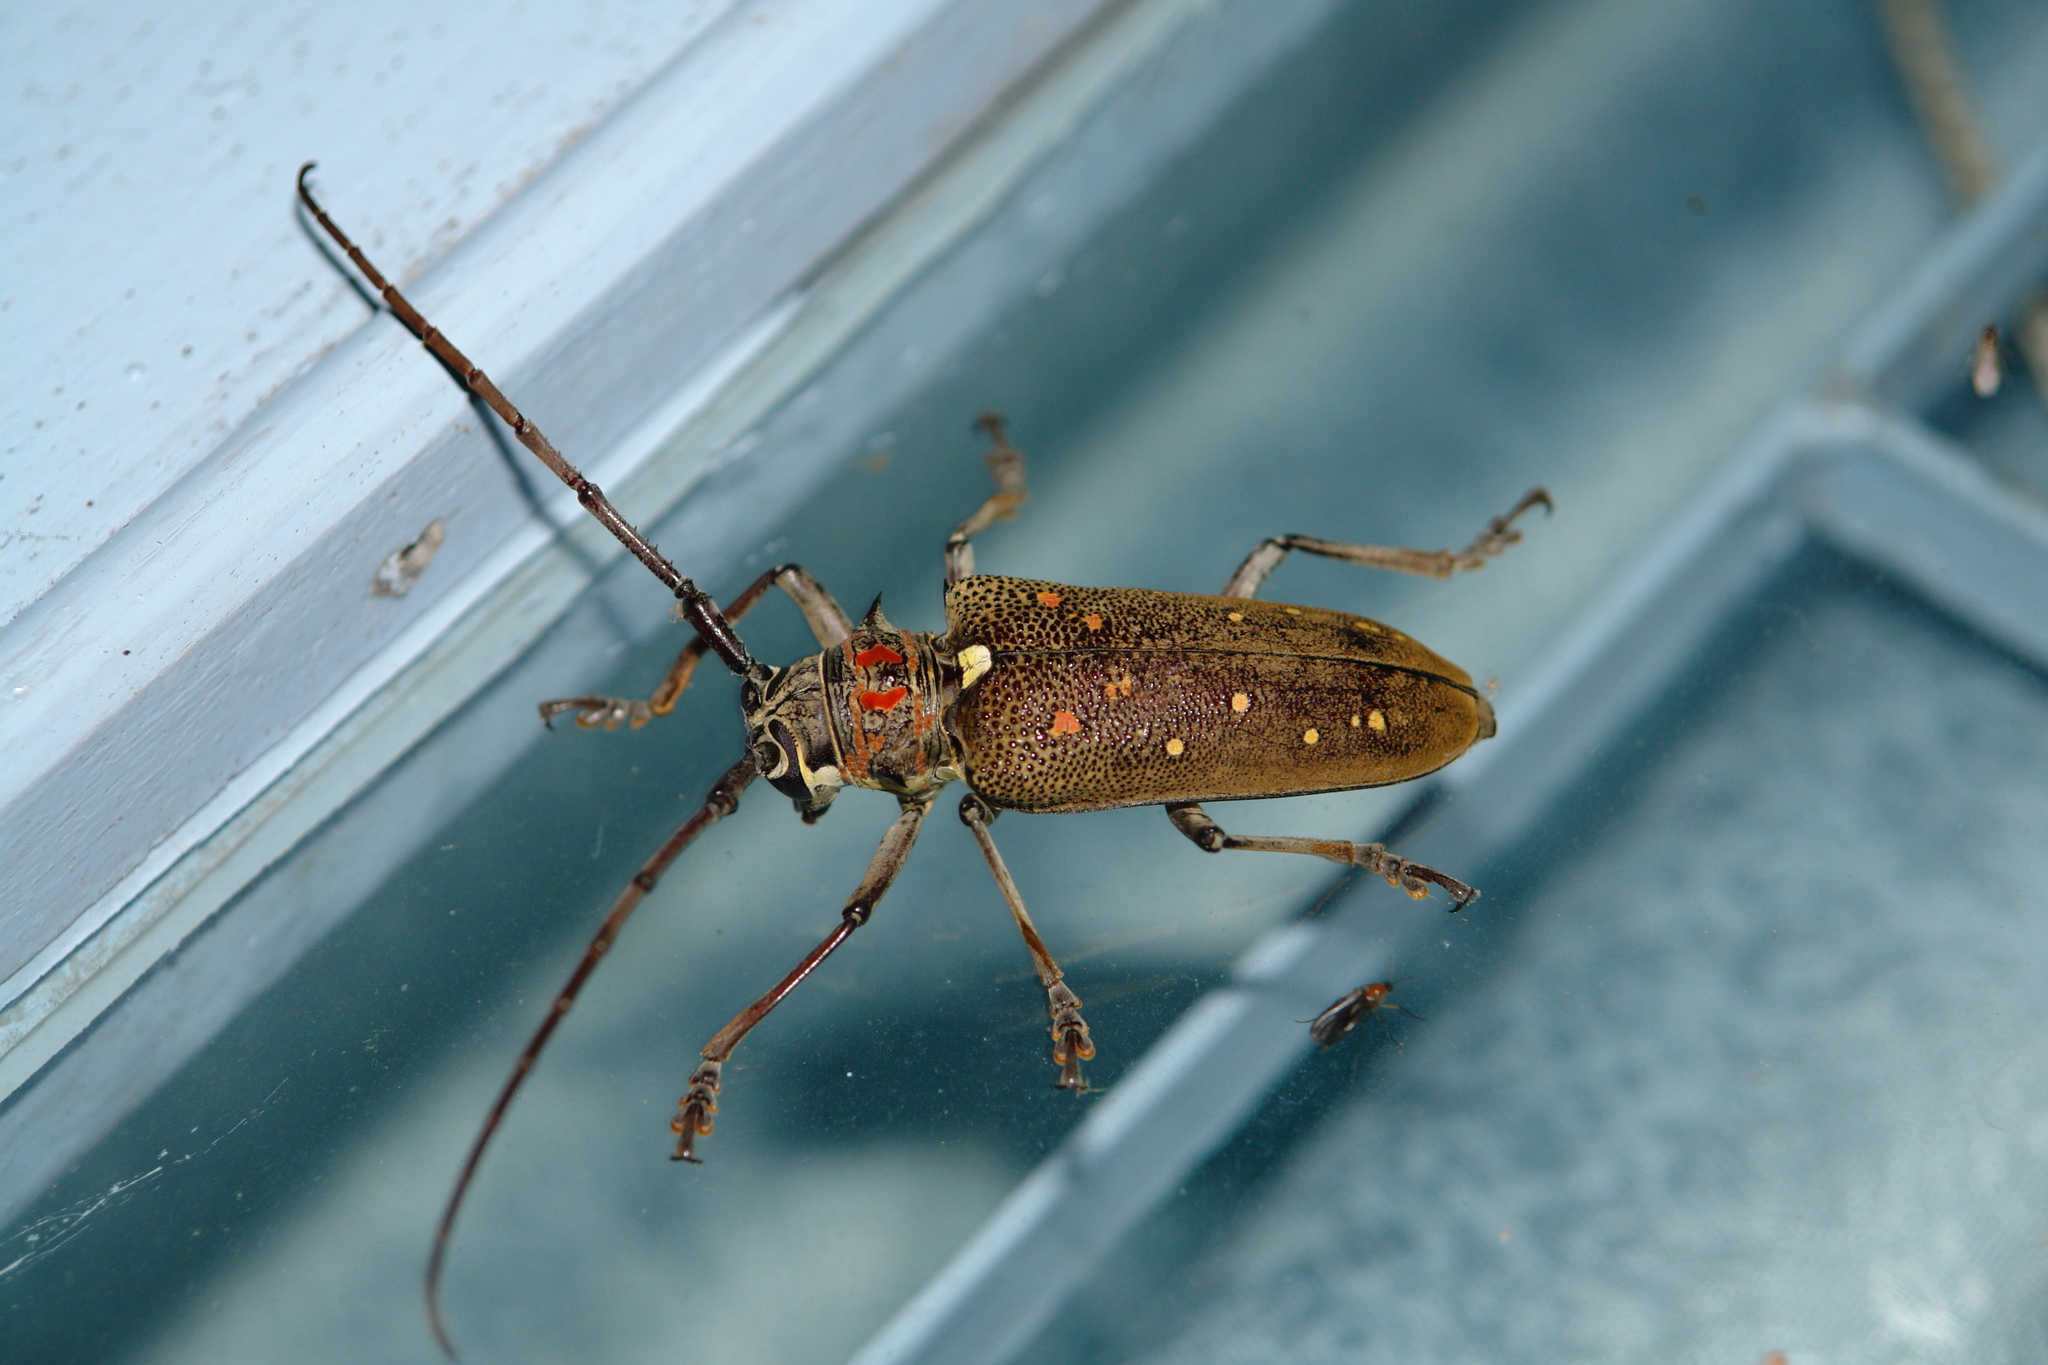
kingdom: Animalia
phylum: Arthropoda
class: Insecta
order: Coleoptera
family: Cerambycidae
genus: Batocera
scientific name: Batocera rufomaculata
